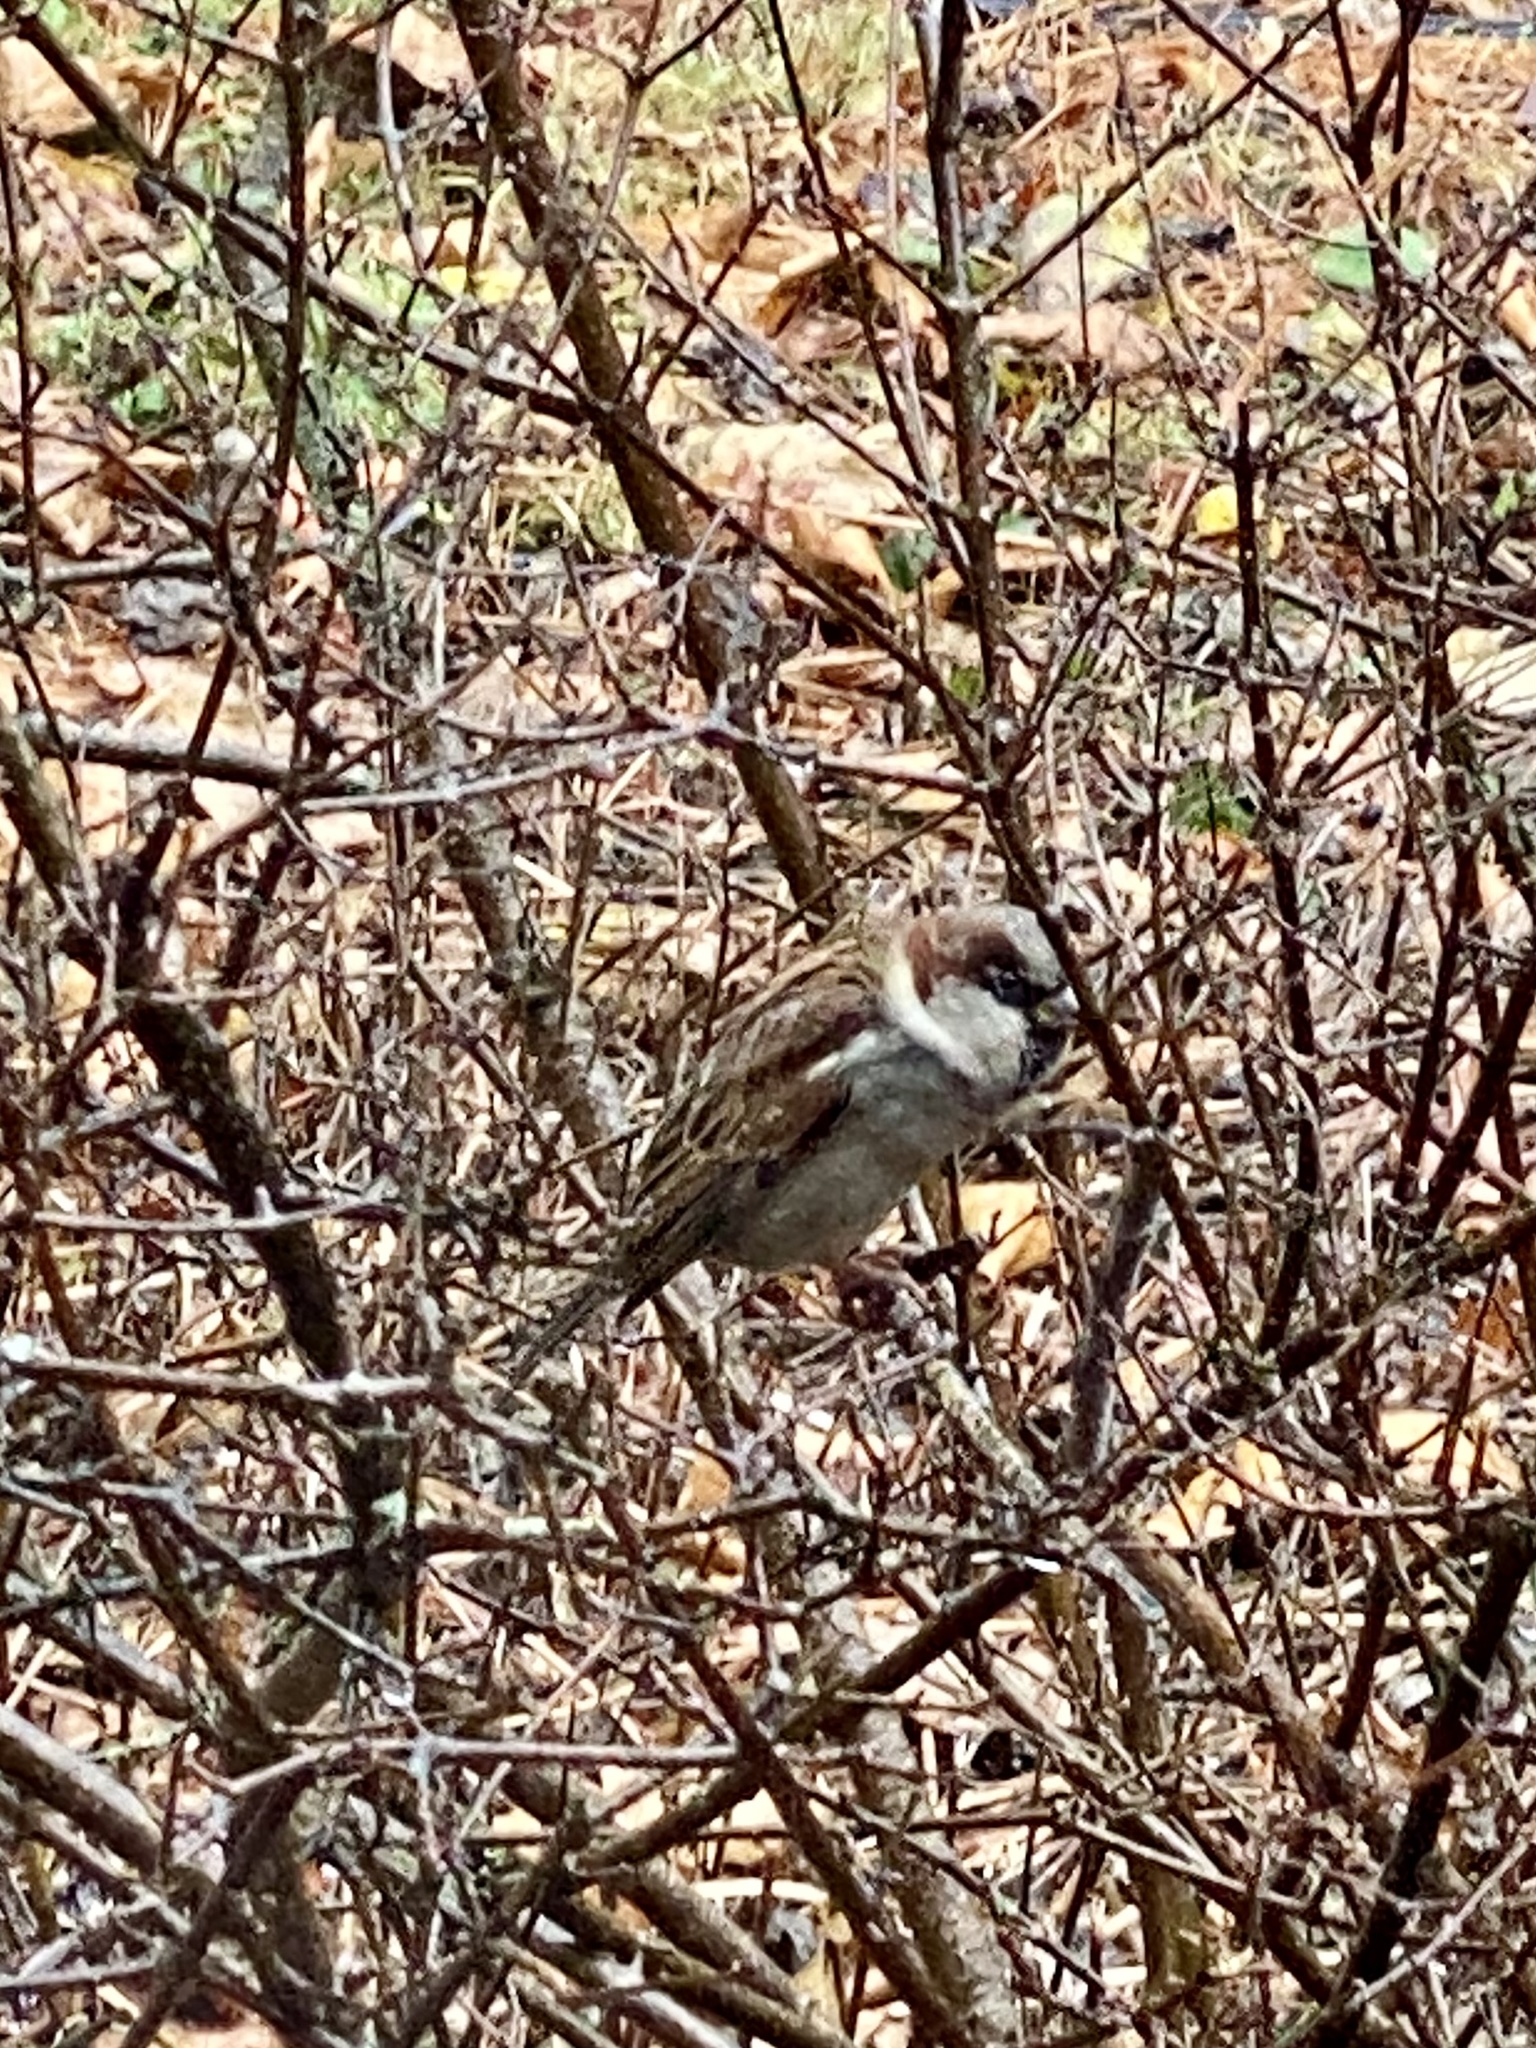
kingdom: Animalia
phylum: Chordata
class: Aves
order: Passeriformes
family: Passeridae
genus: Passer
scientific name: Passer domesticus
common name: House sparrow
